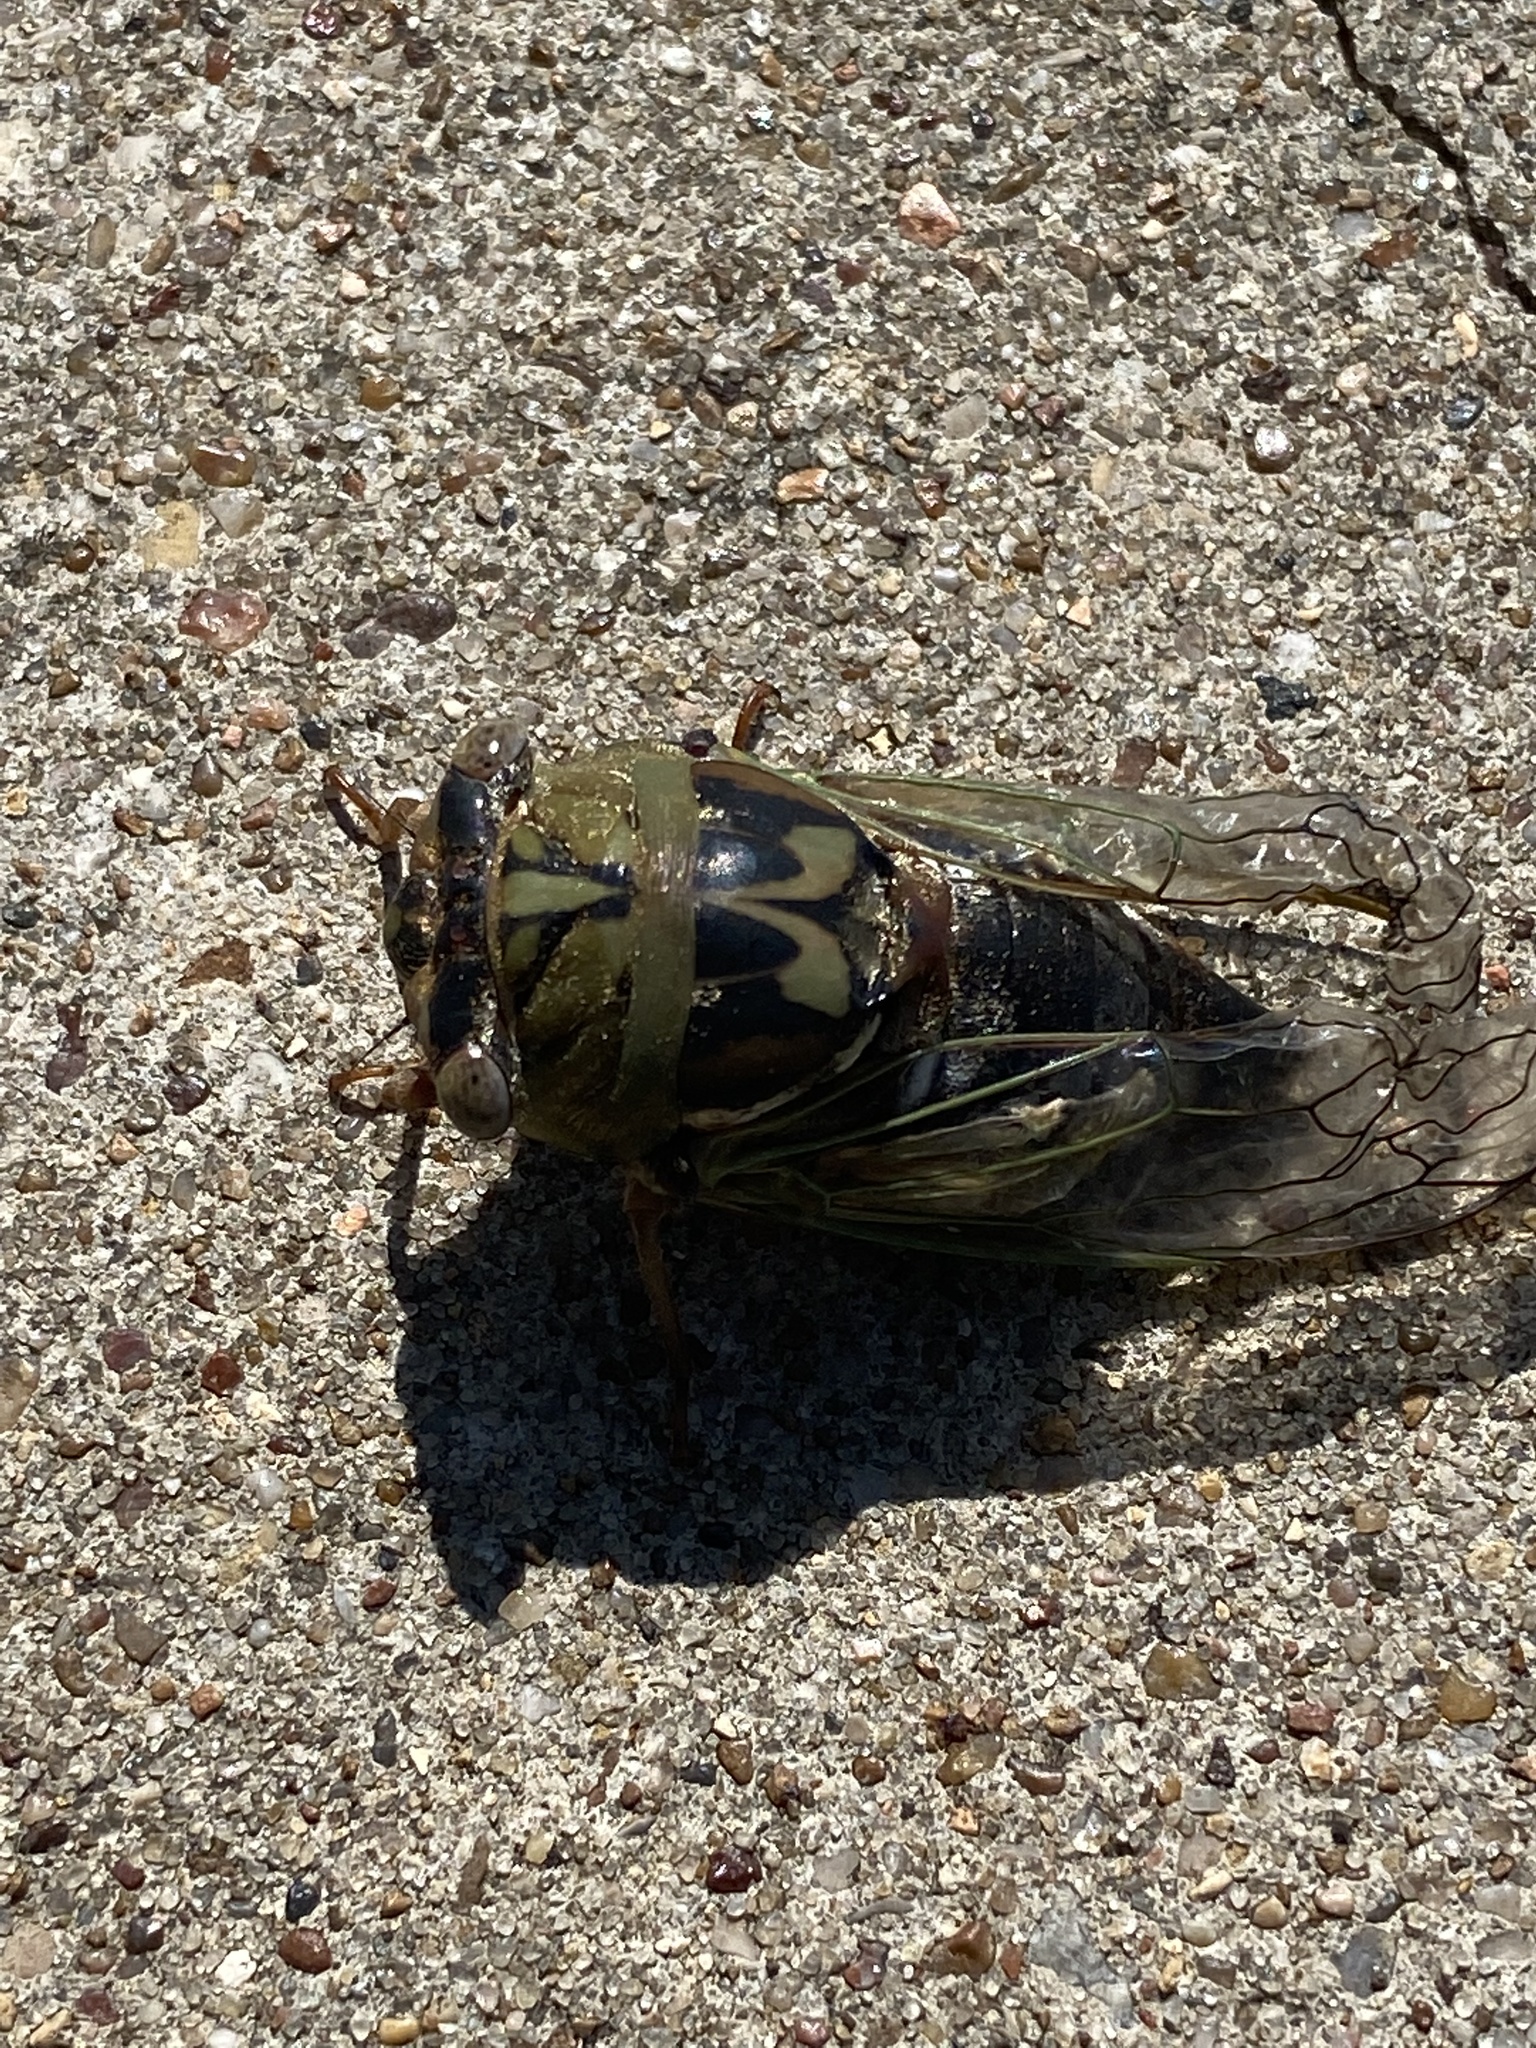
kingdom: Animalia
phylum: Arthropoda
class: Insecta
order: Hemiptera
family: Cicadidae
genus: Megatibicen
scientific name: Megatibicen resh
